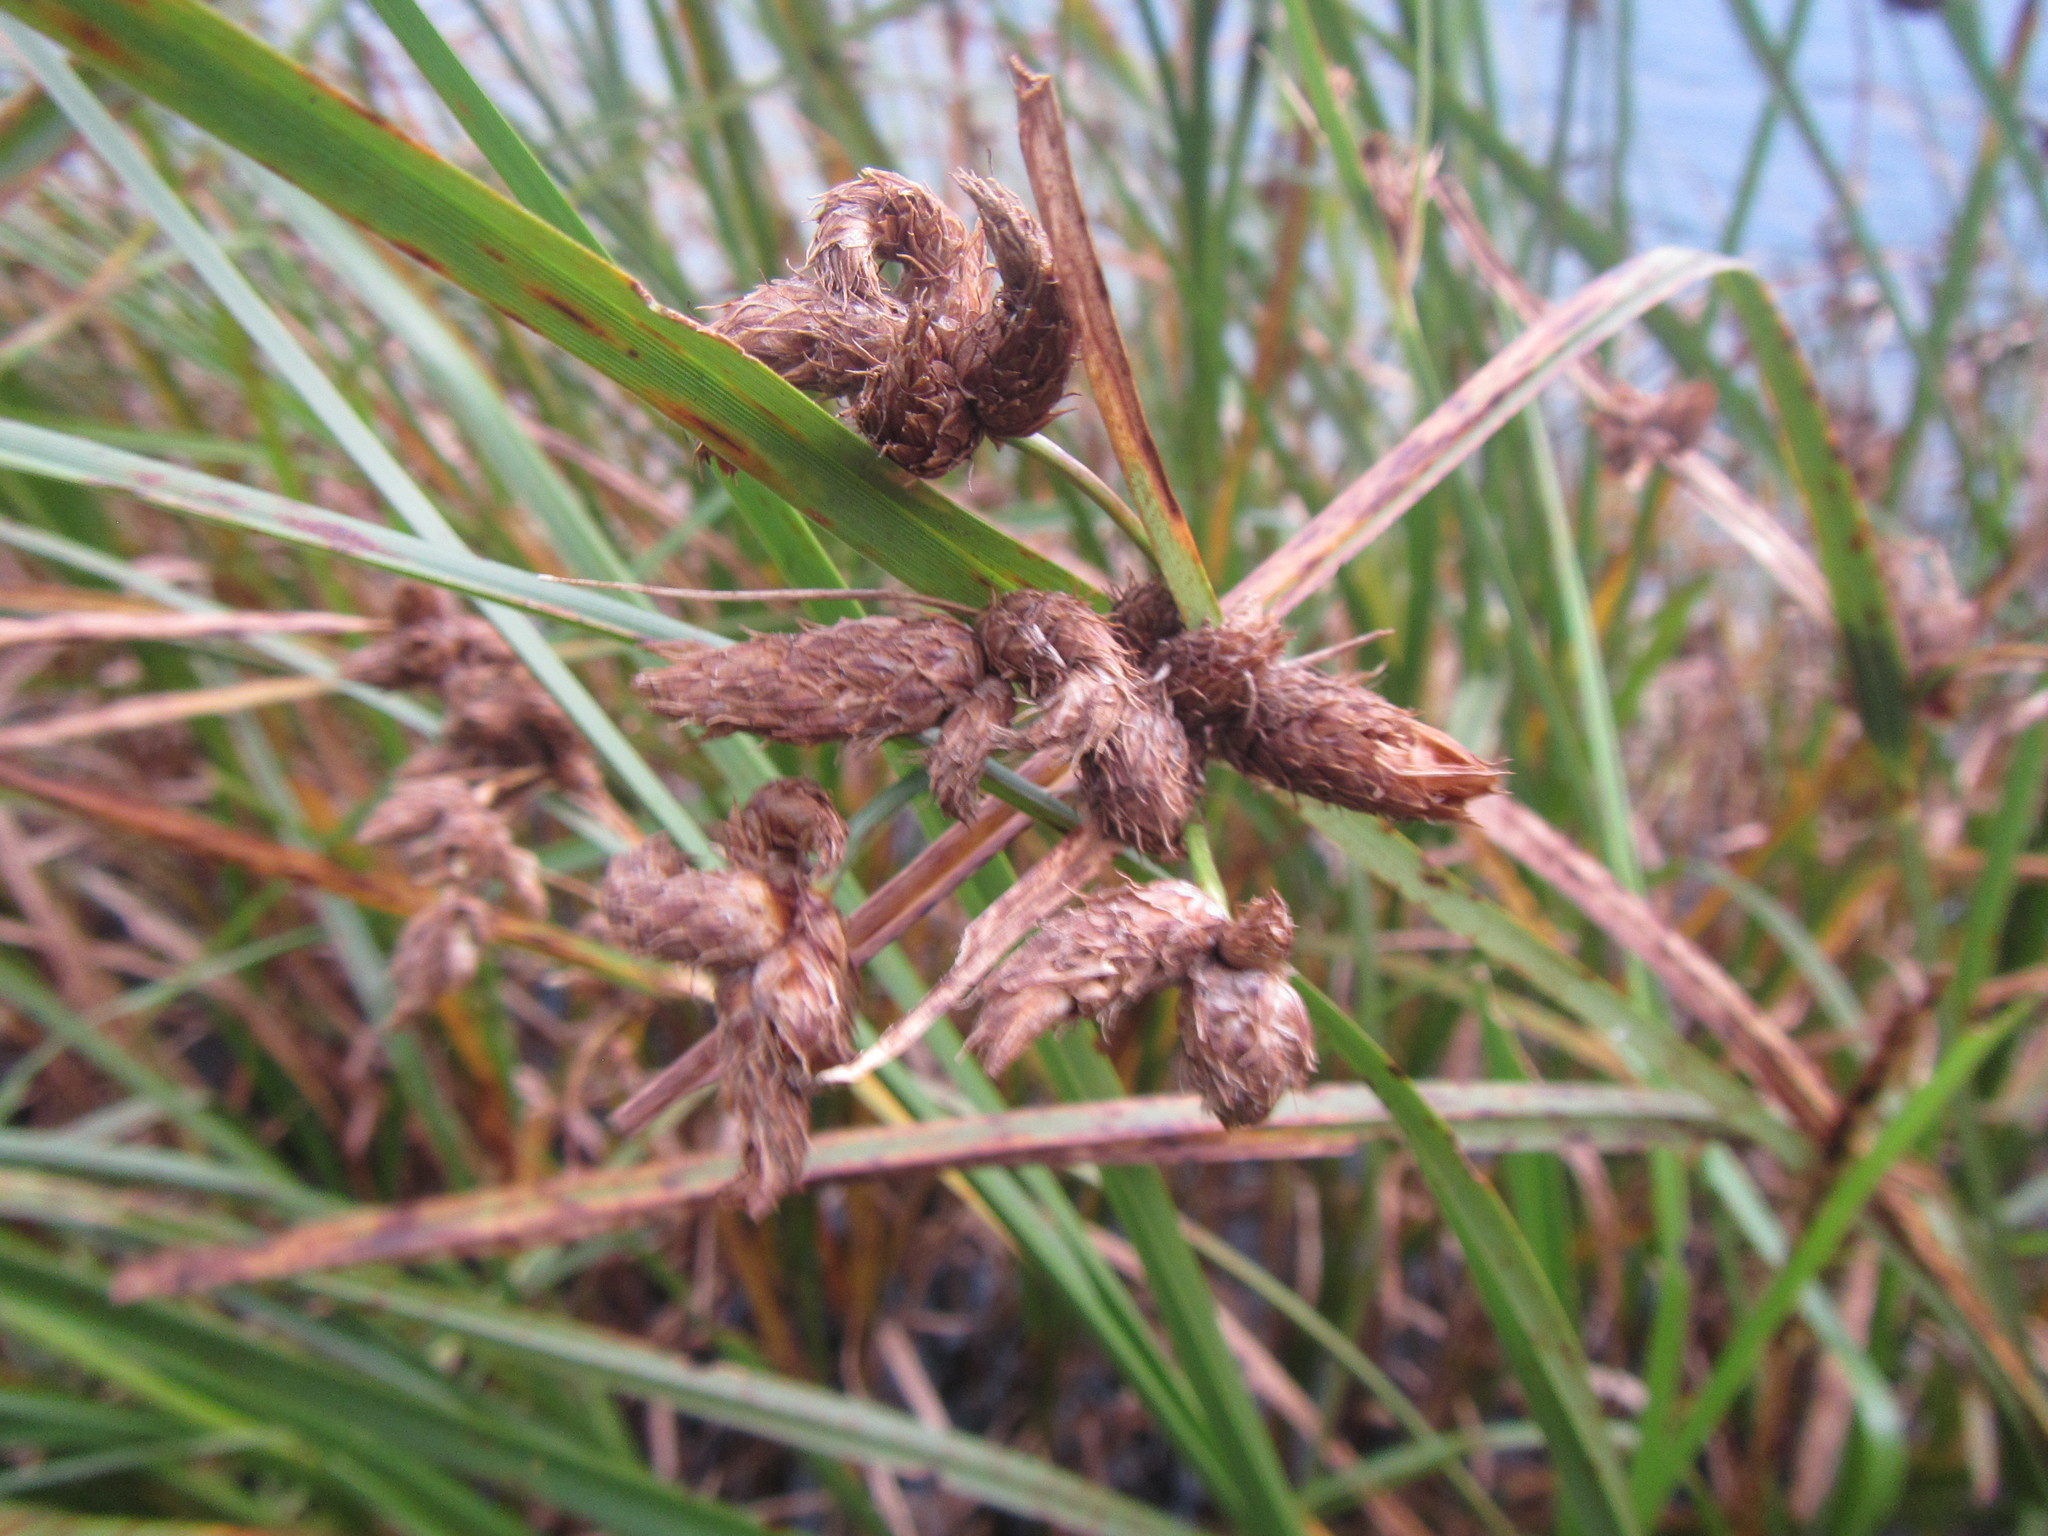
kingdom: Plantae
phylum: Tracheophyta
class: Liliopsida
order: Poales
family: Cyperaceae
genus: Bolboschoenus
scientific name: Bolboschoenus maritimus
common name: Sea club-rush
